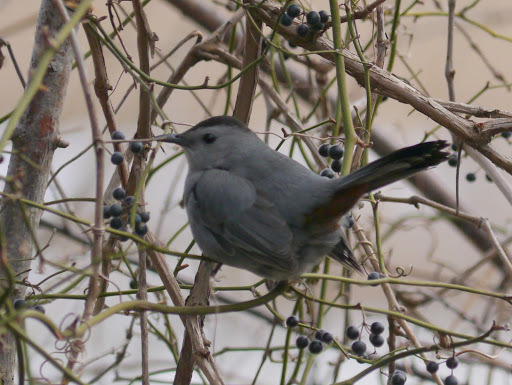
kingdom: Animalia
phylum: Chordata
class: Aves
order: Passeriformes
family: Mimidae
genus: Dumetella
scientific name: Dumetella carolinensis
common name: Gray catbird
